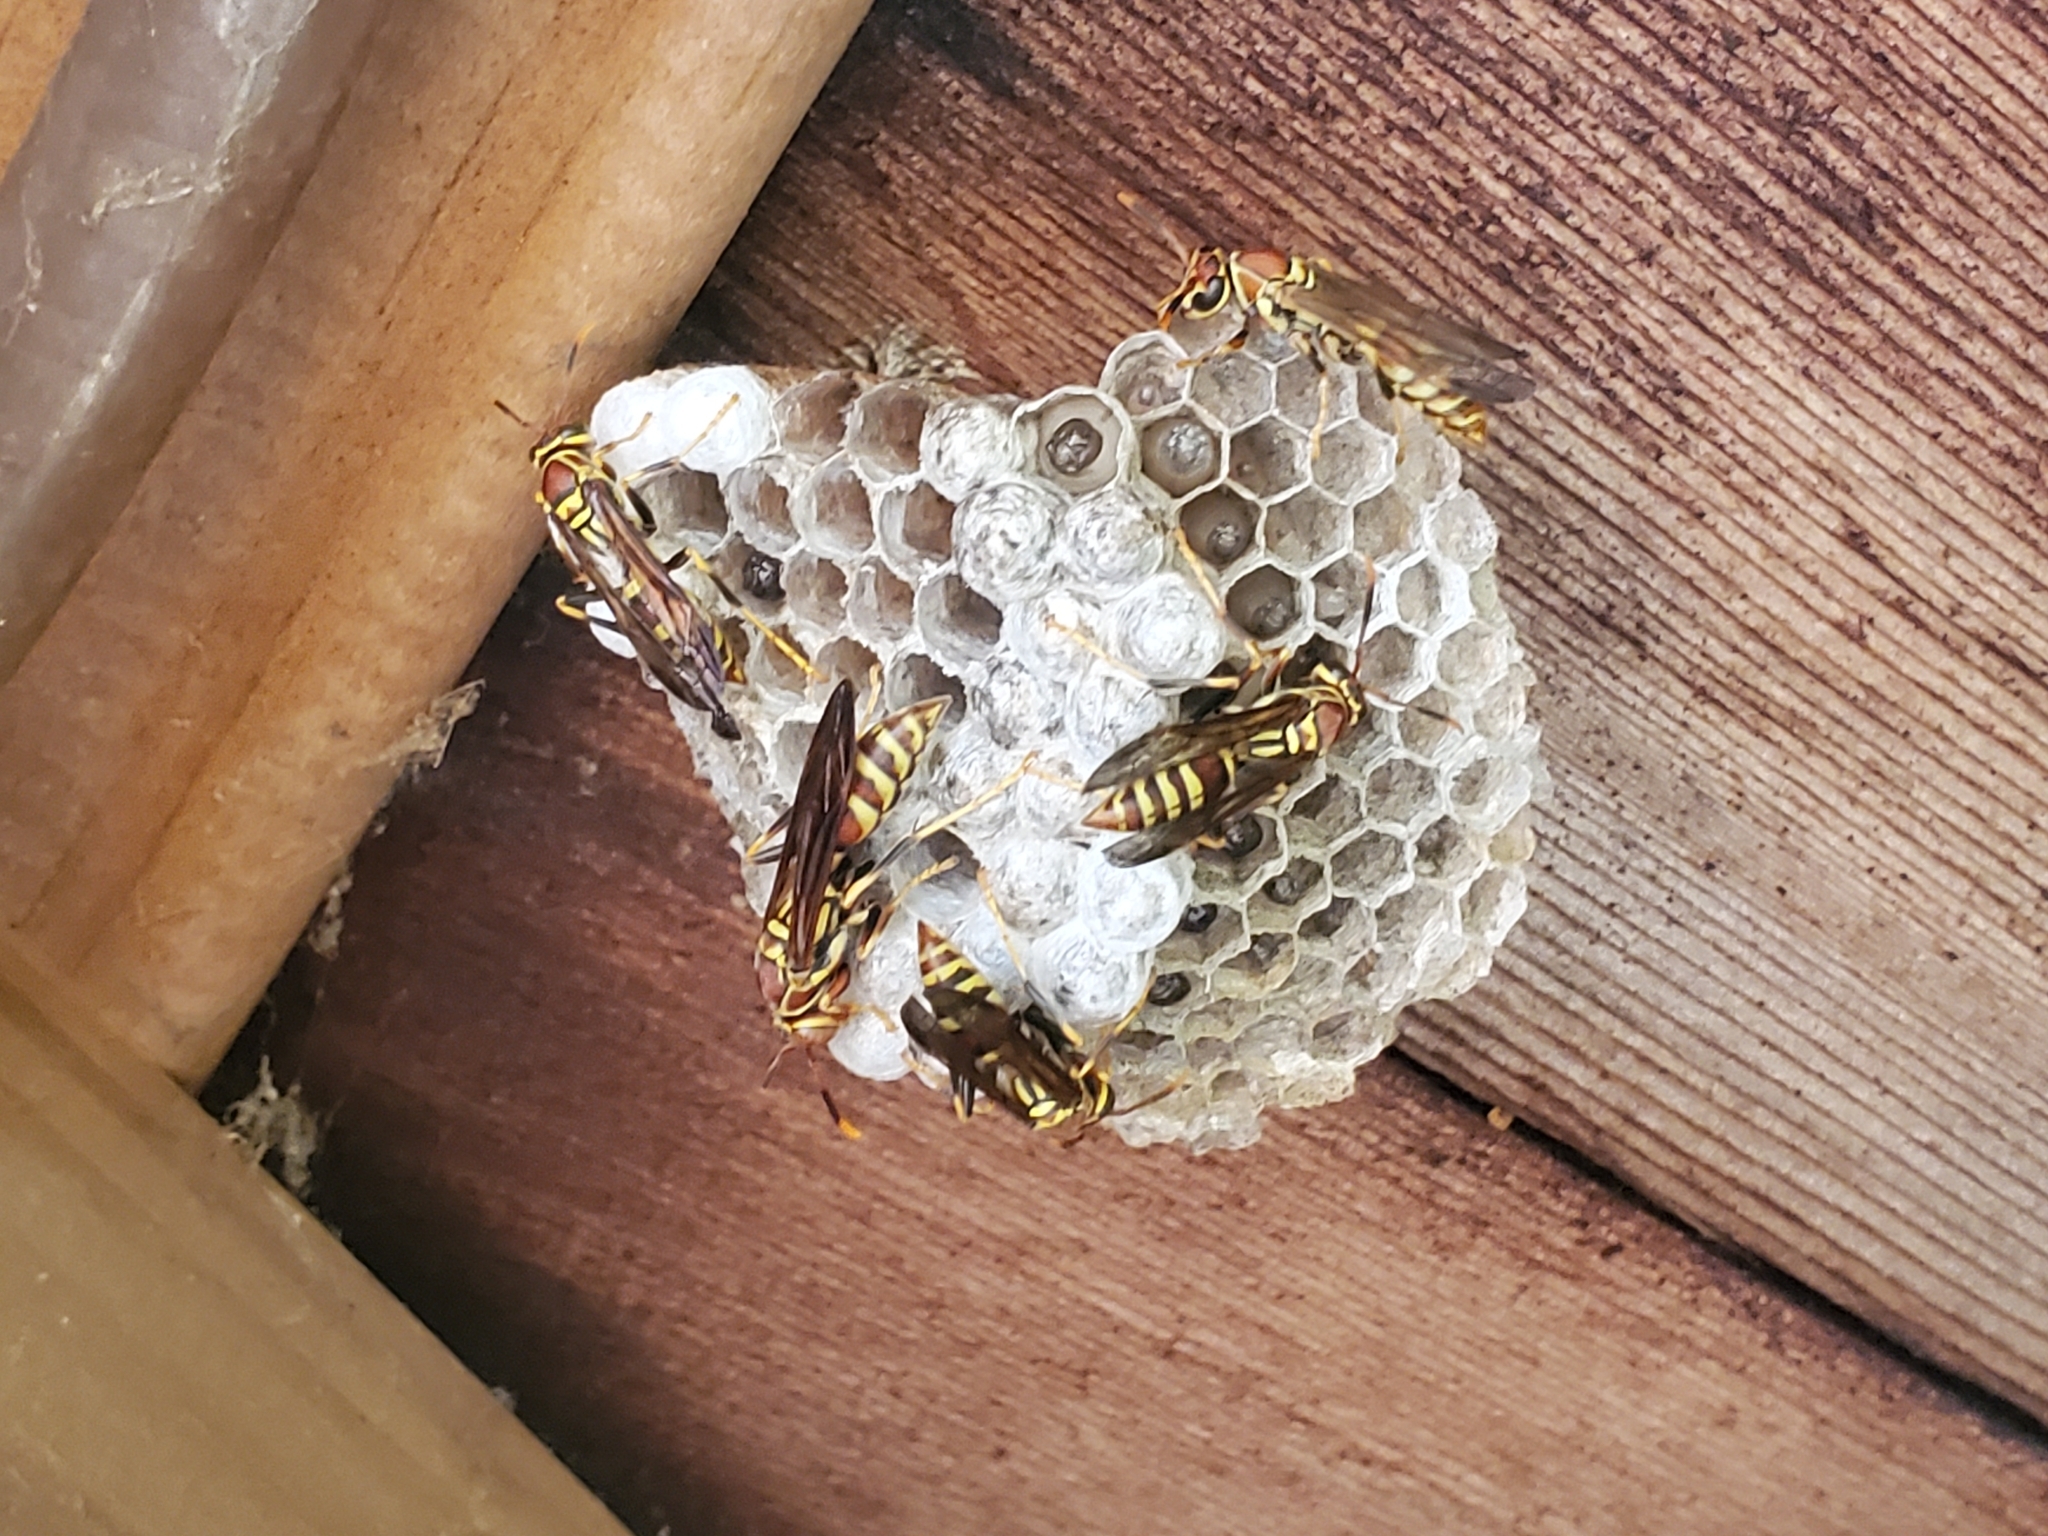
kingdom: Animalia
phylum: Arthropoda
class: Insecta
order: Hymenoptera
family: Eumenidae
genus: Polistes
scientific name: Polistes exclamans
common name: Paper wasp
